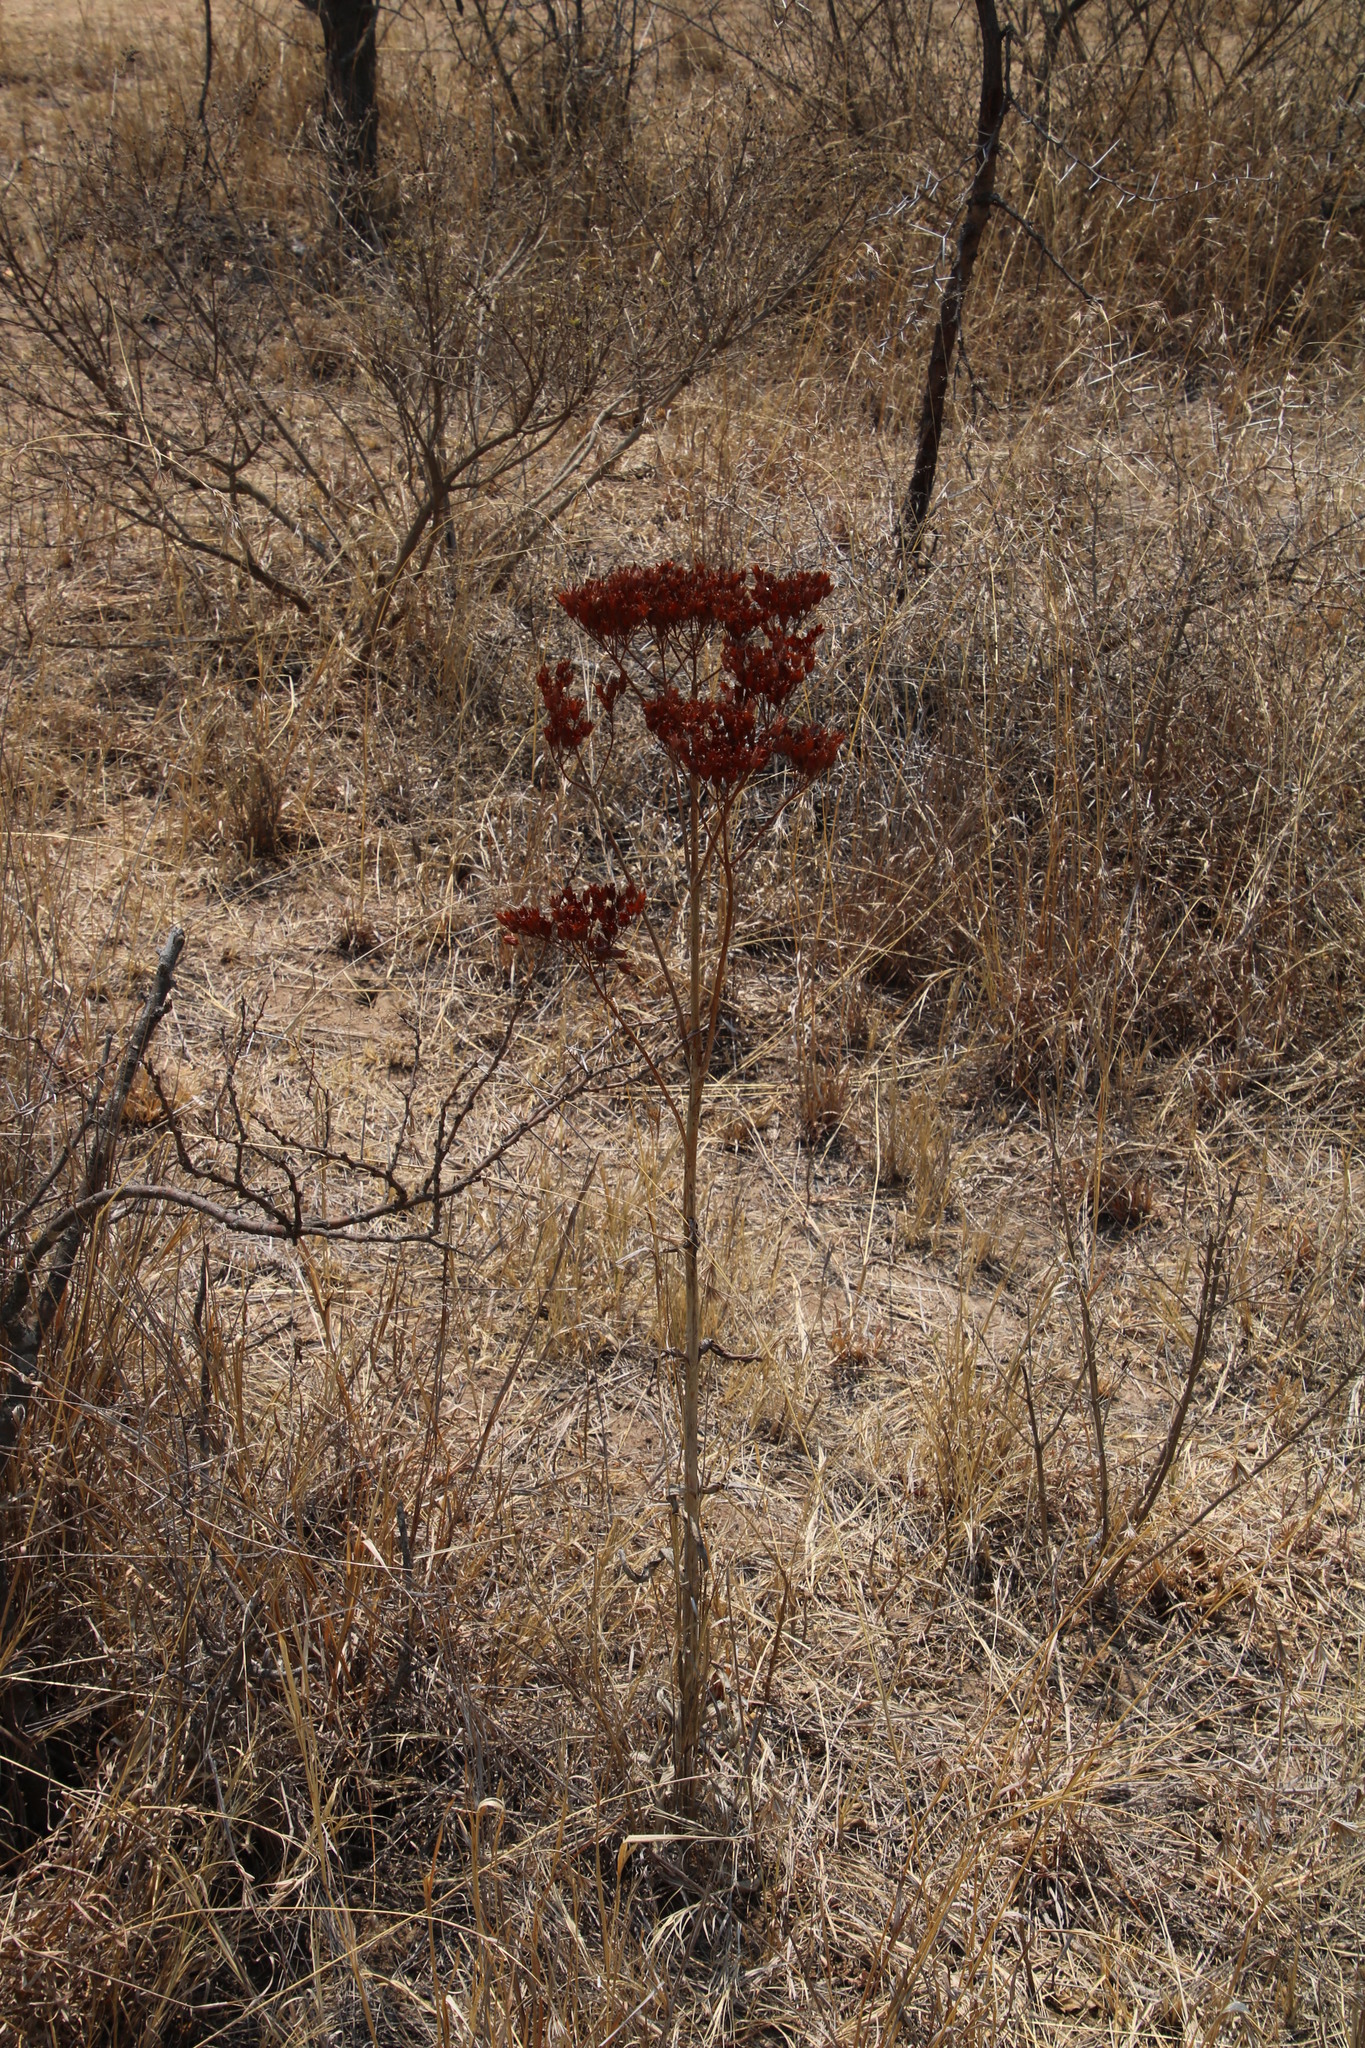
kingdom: Plantae
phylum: Tracheophyta
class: Magnoliopsida
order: Saxifragales
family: Crassulaceae
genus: Kalanchoe
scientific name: Kalanchoe paniculata
